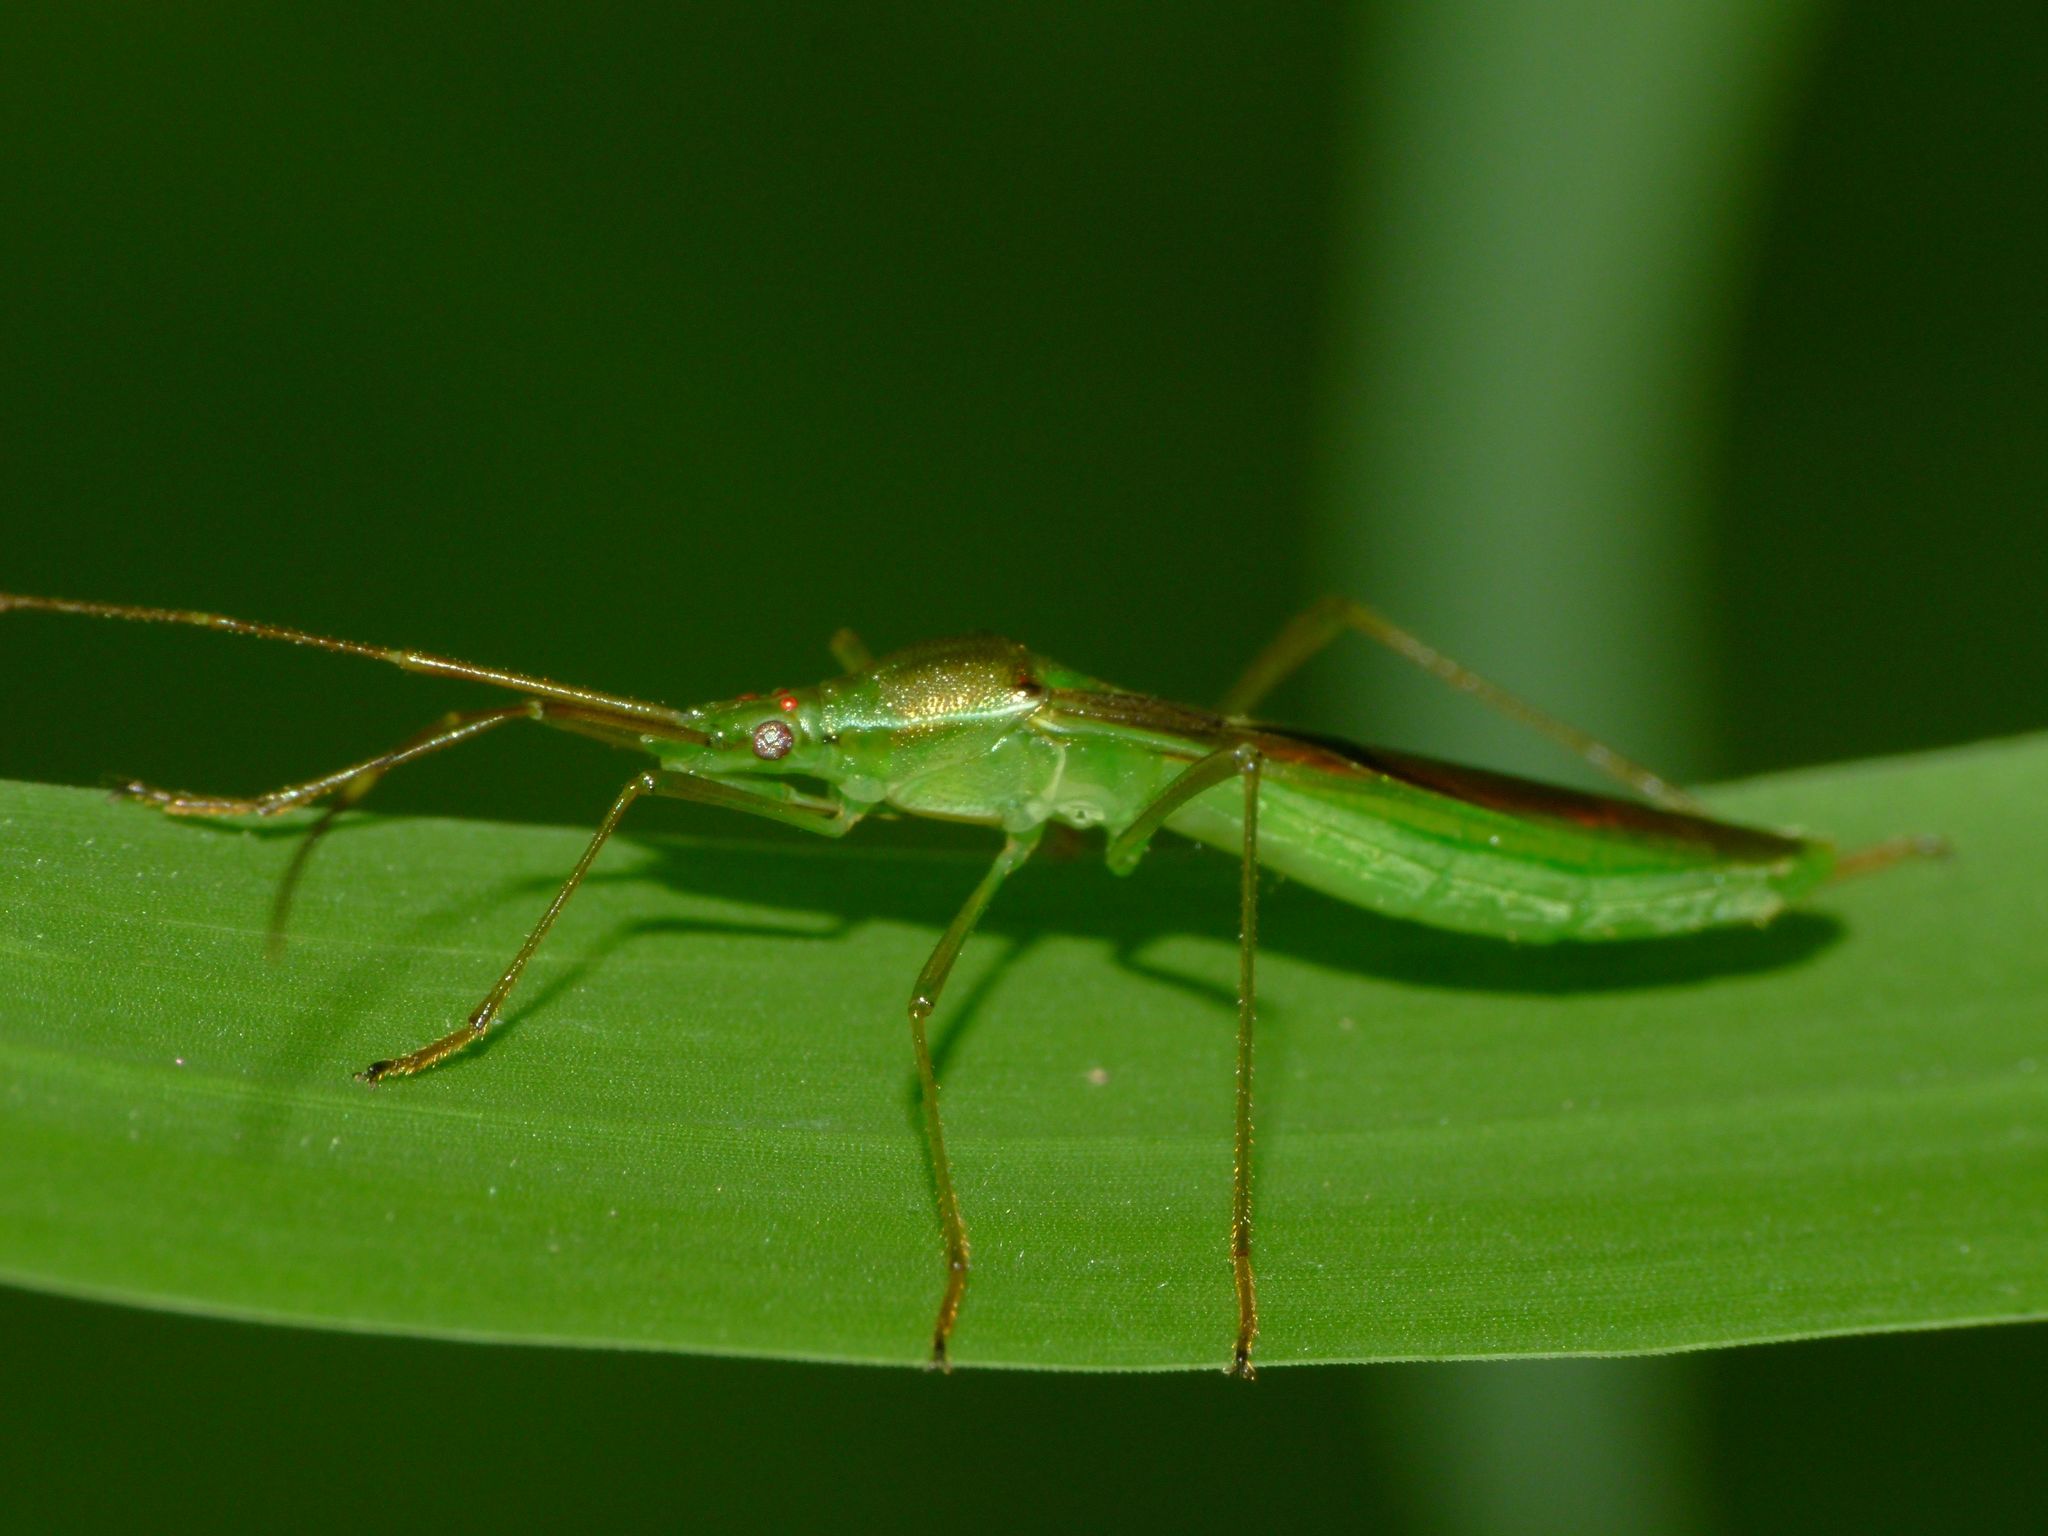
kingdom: Animalia
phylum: Arthropoda
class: Insecta
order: Hemiptera
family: Alydidae
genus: Leptocorisa
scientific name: Leptocorisa acuta
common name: Gandhi bug
